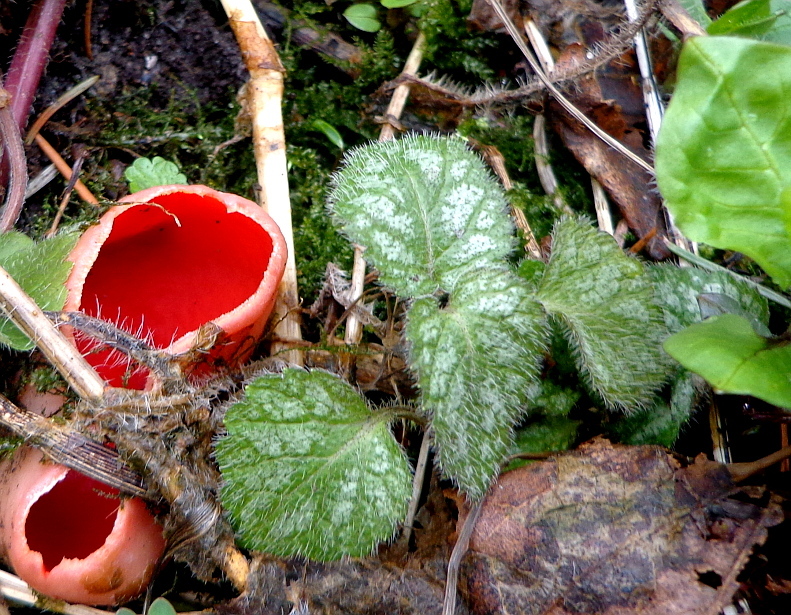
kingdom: Plantae
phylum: Tracheophyta
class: Magnoliopsida
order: Lamiales
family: Lamiaceae
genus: Lamium
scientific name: Lamium galeobdolon
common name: Yellow archangel
